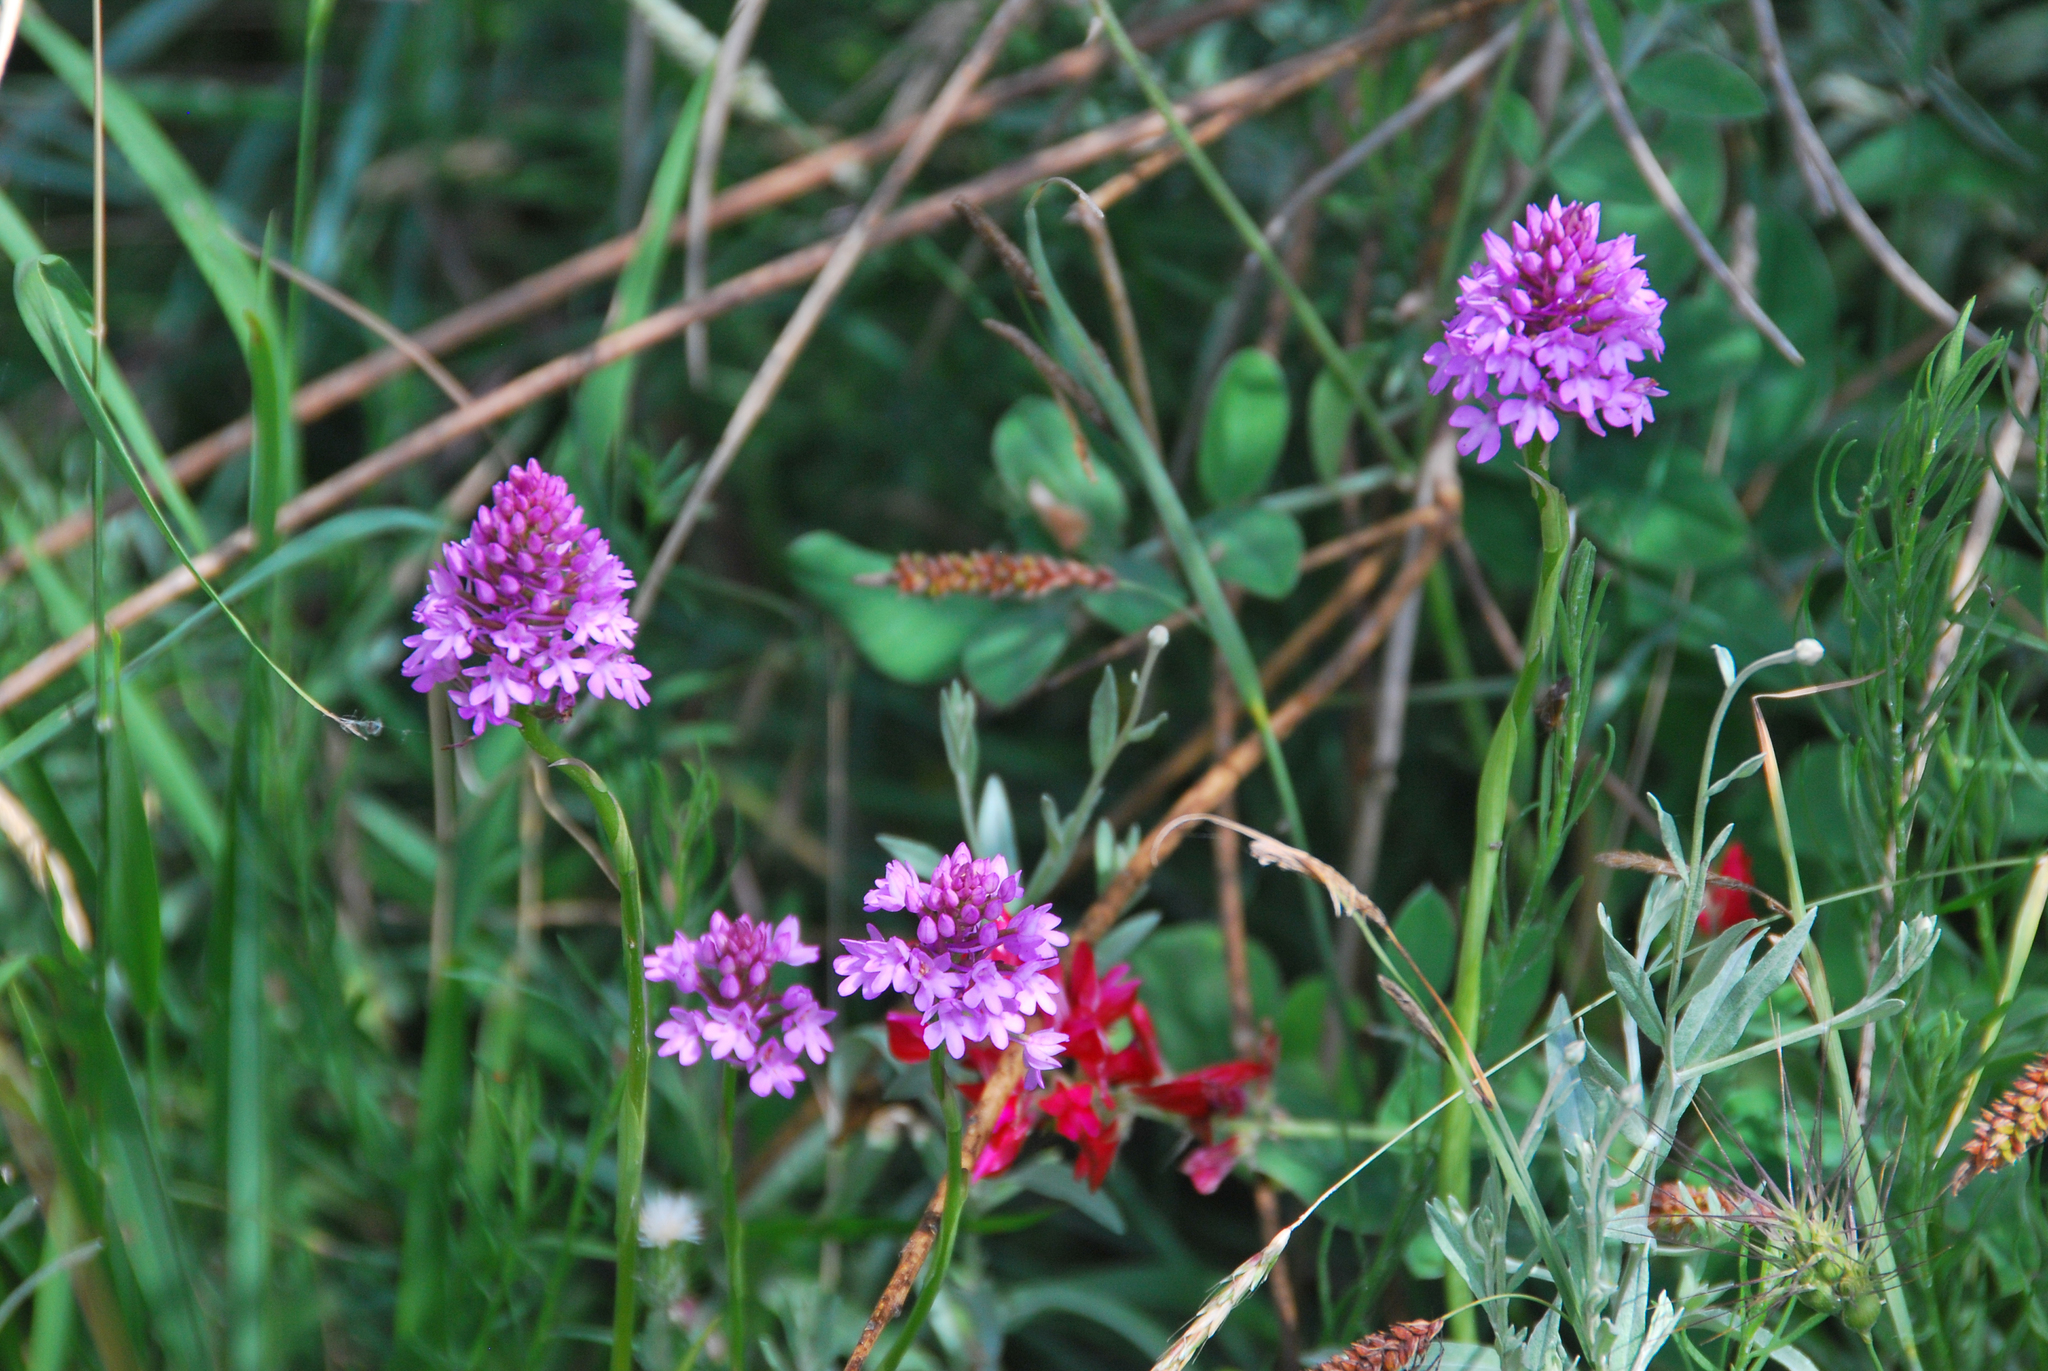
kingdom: Plantae
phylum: Tracheophyta
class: Liliopsida
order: Asparagales
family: Orchidaceae
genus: Anacamptis
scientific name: Anacamptis pyramidalis
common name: Pyramidal orchid
